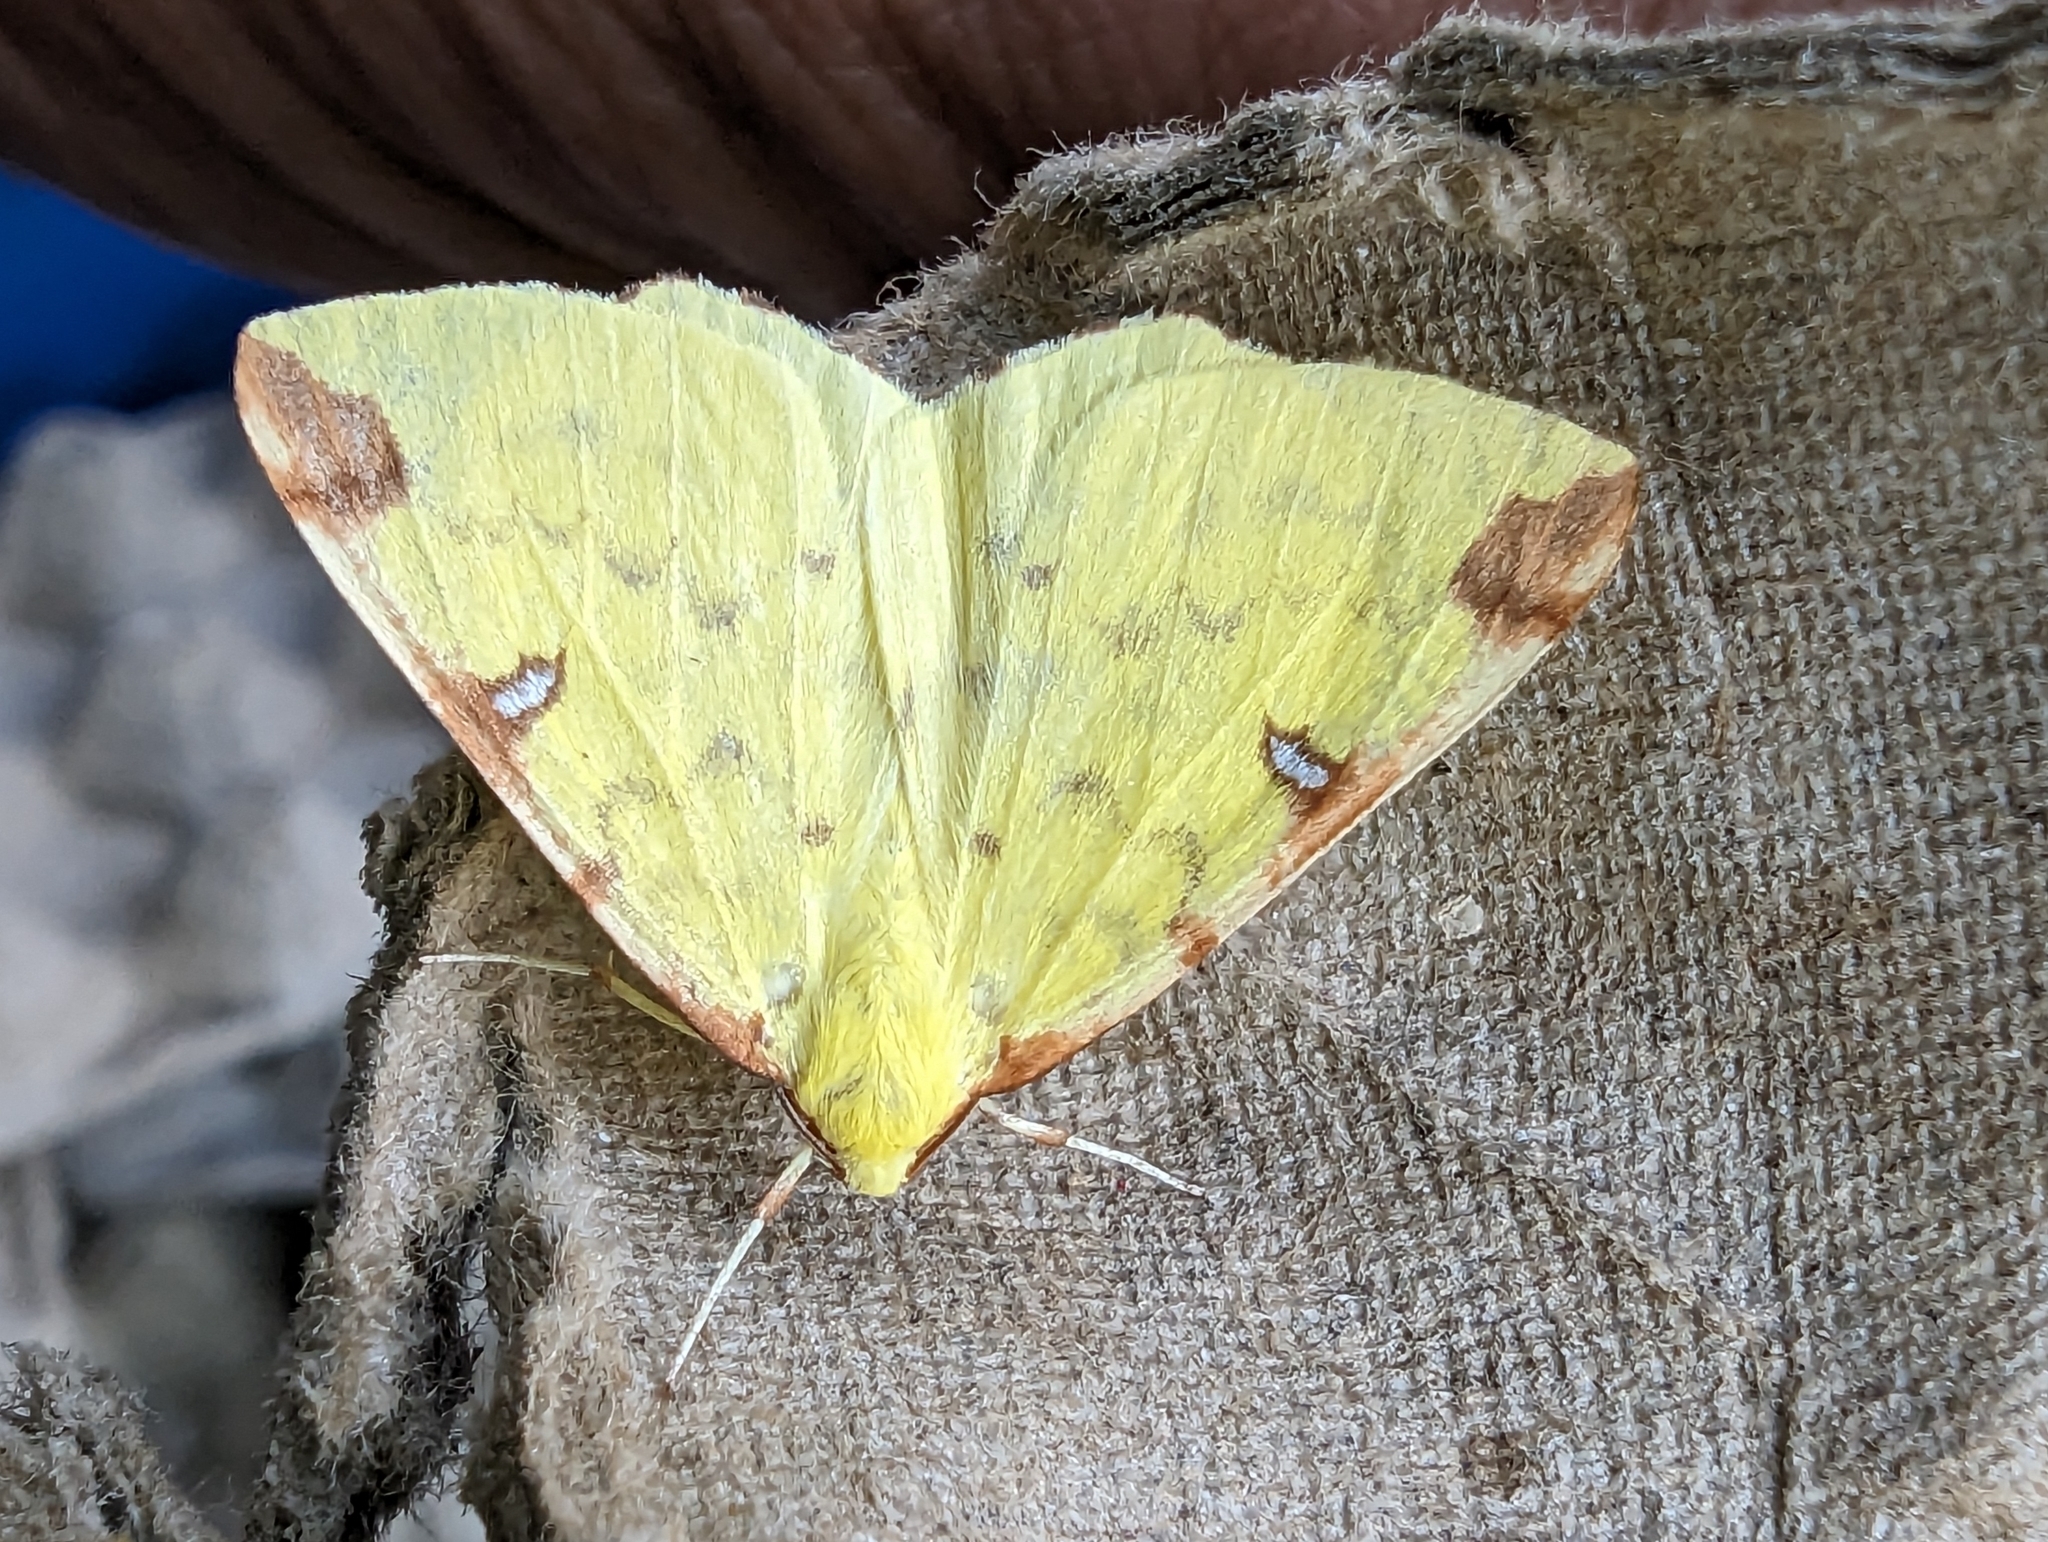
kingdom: Animalia
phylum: Arthropoda
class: Insecta
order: Lepidoptera
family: Geometridae
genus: Opisthograptis
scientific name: Opisthograptis luteolata
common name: Brimstone moth
